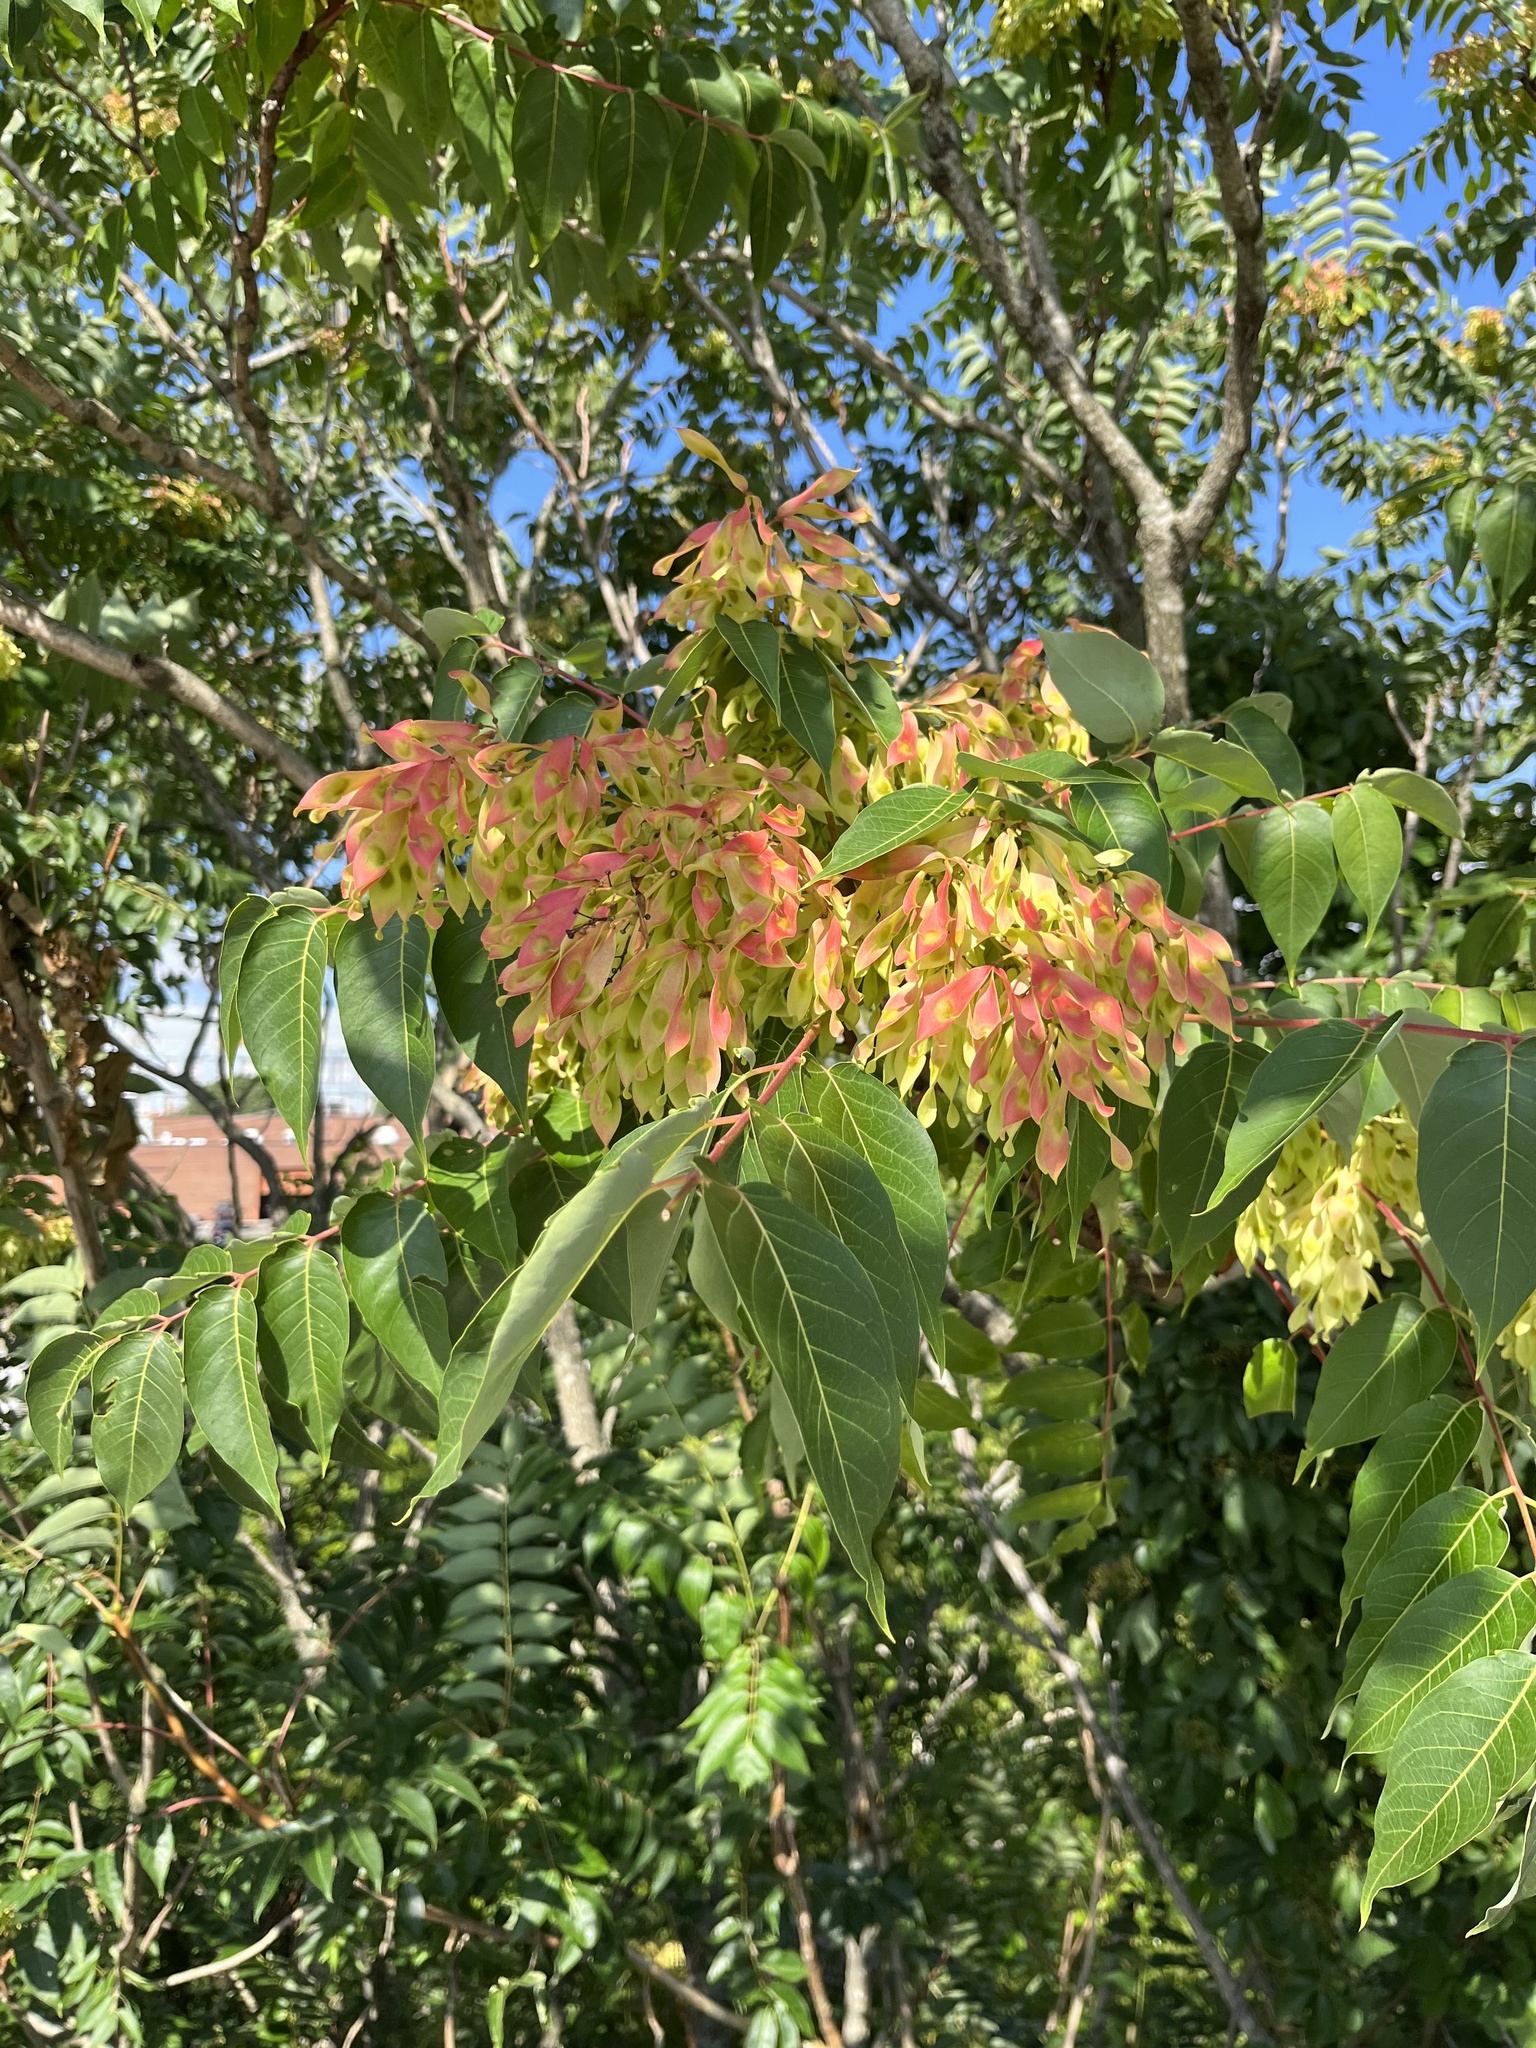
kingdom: Plantae
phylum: Tracheophyta
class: Magnoliopsida
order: Sapindales
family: Simaroubaceae
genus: Ailanthus
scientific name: Ailanthus altissima
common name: Tree-of-heaven
